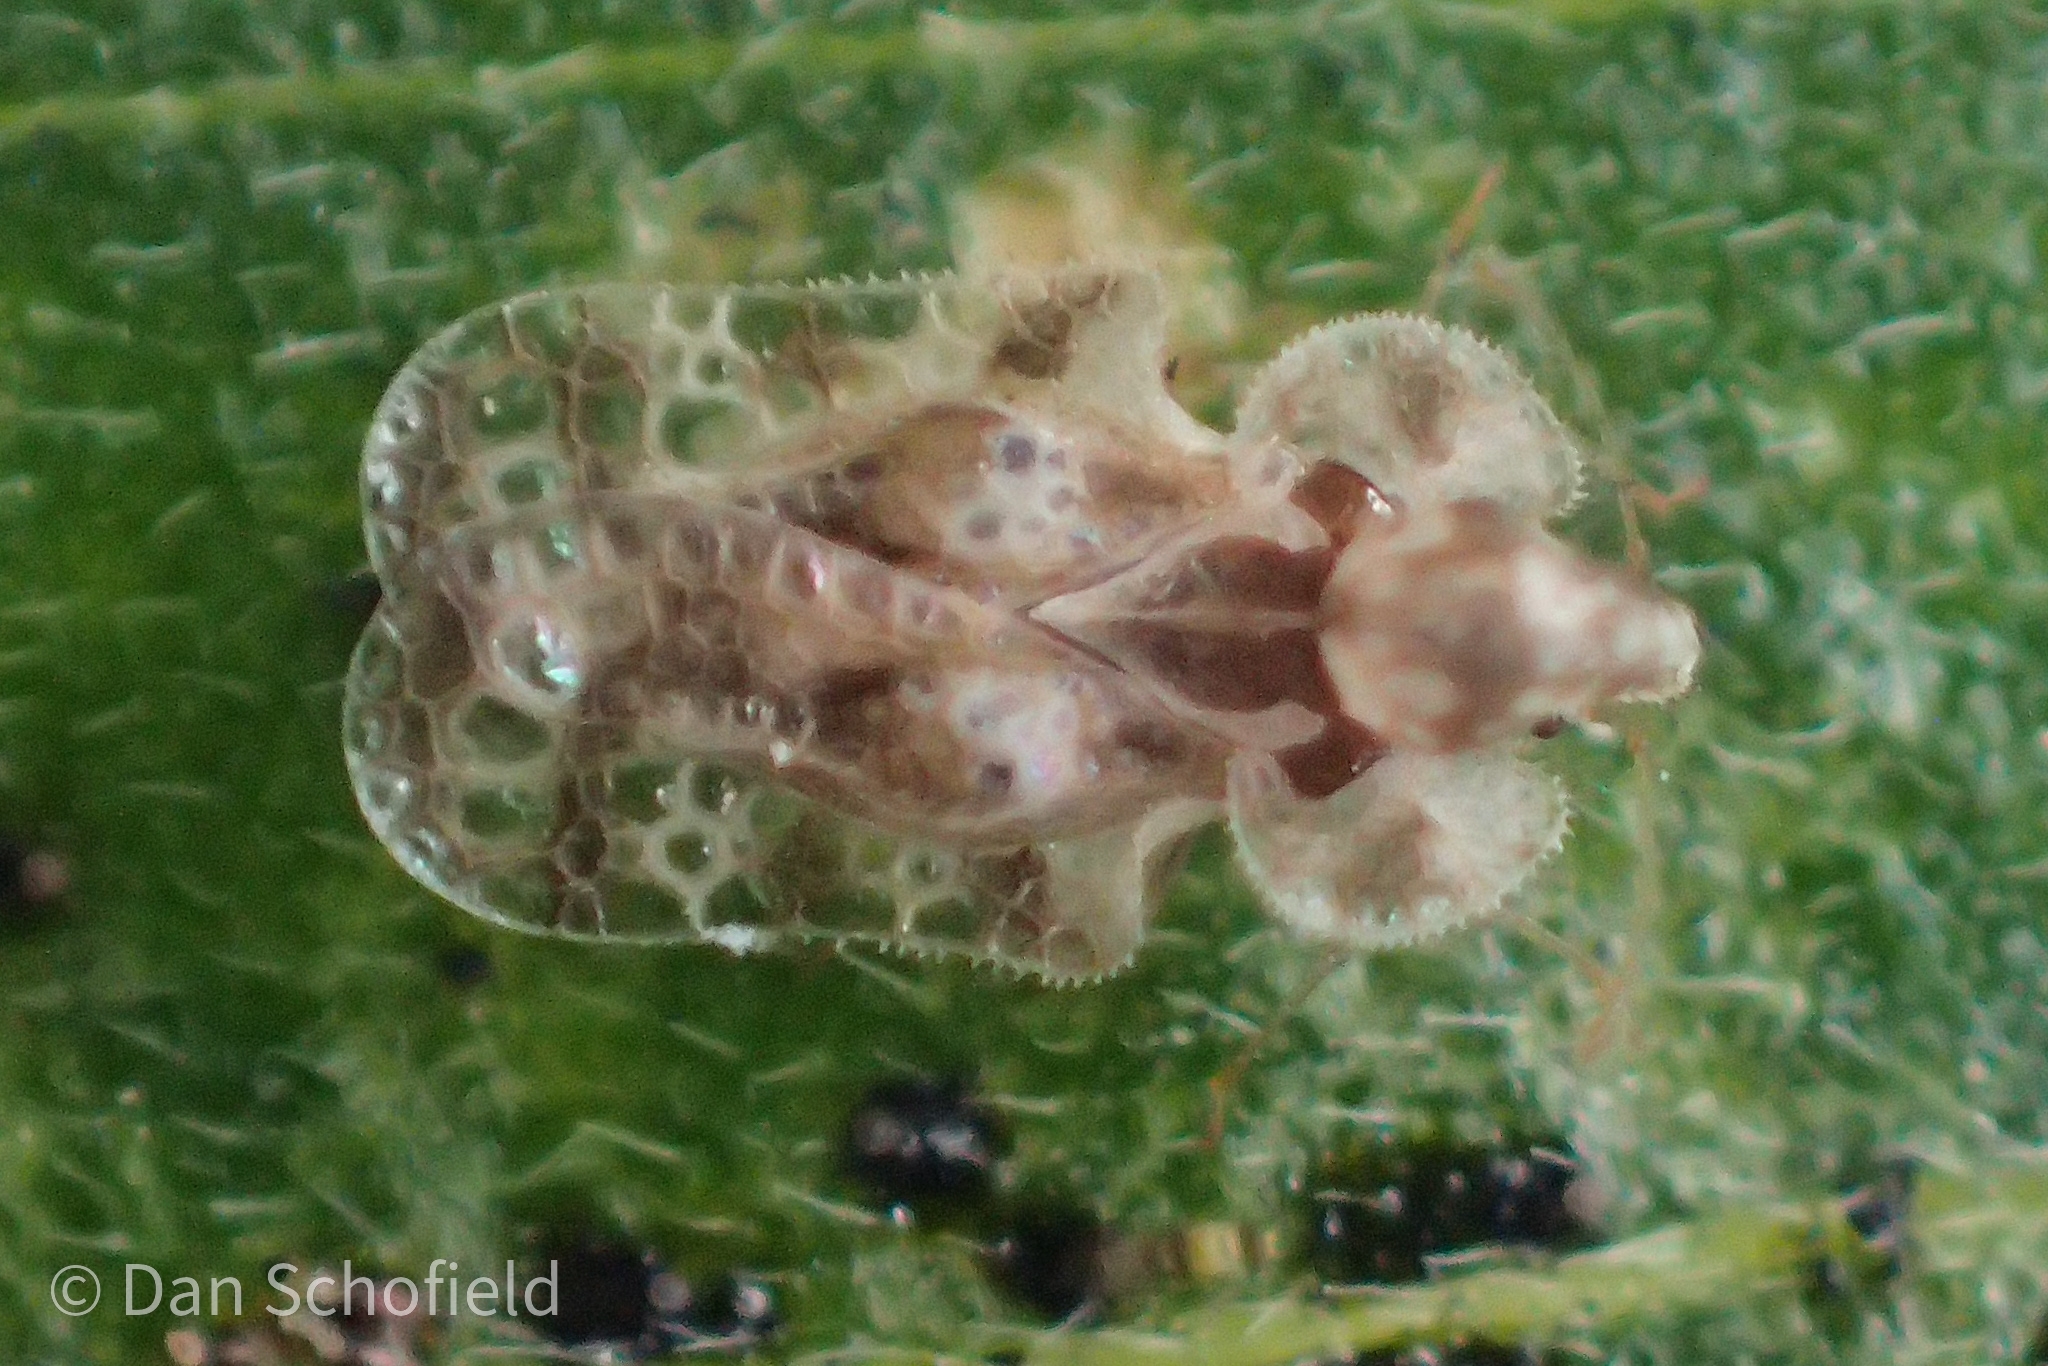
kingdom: Animalia
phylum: Arthropoda
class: Insecta
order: Hemiptera
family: Tingidae
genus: Corythucha
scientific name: Corythucha marmorata
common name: Chrysanthemum lace bug
